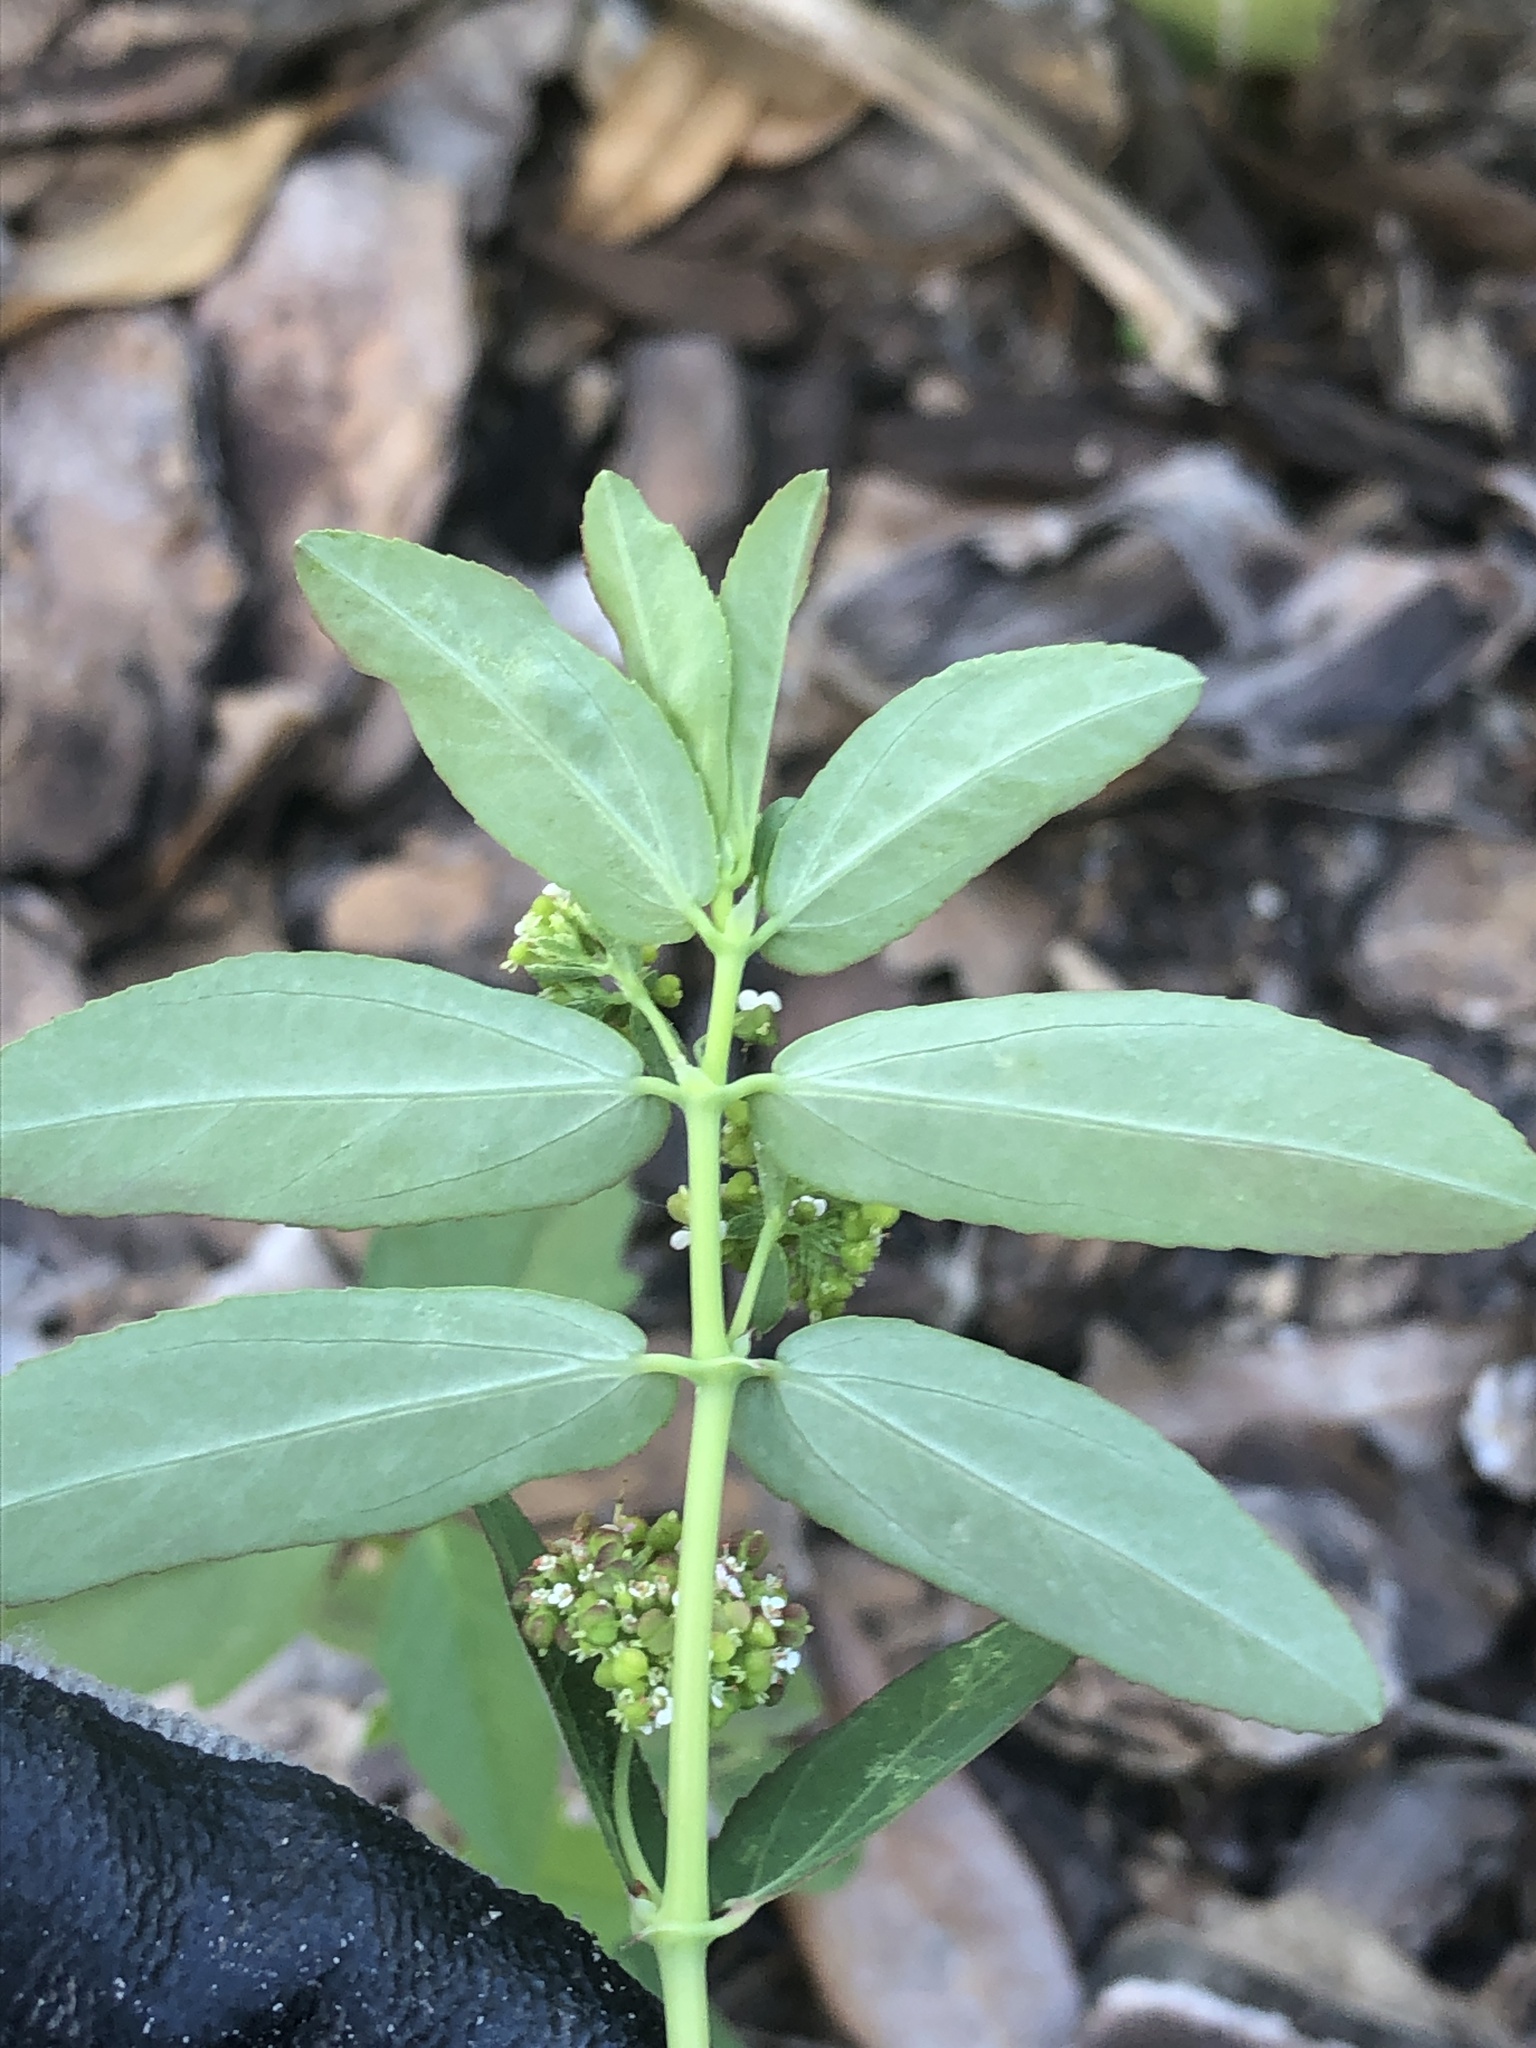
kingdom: Plantae
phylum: Tracheophyta
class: Magnoliopsida
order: Malpighiales
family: Euphorbiaceae
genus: Euphorbia
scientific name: Euphorbia hypericifolia
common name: Graceful sandmat
